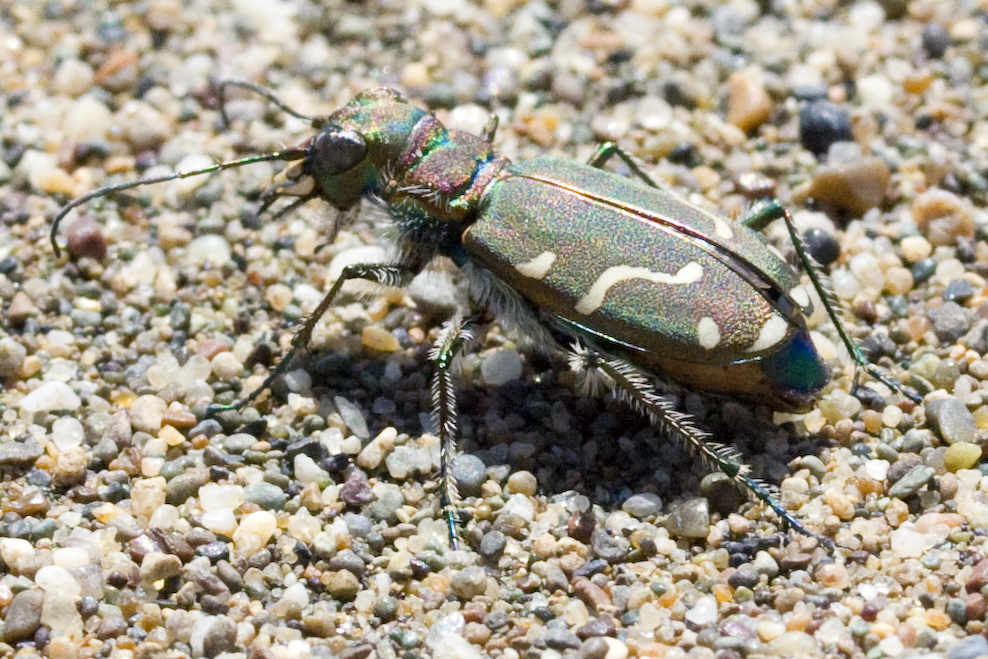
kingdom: Animalia
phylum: Arthropoda
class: Insecta
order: Coleoptera
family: Carabidae
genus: Cicindela
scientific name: Cicindela depressula
